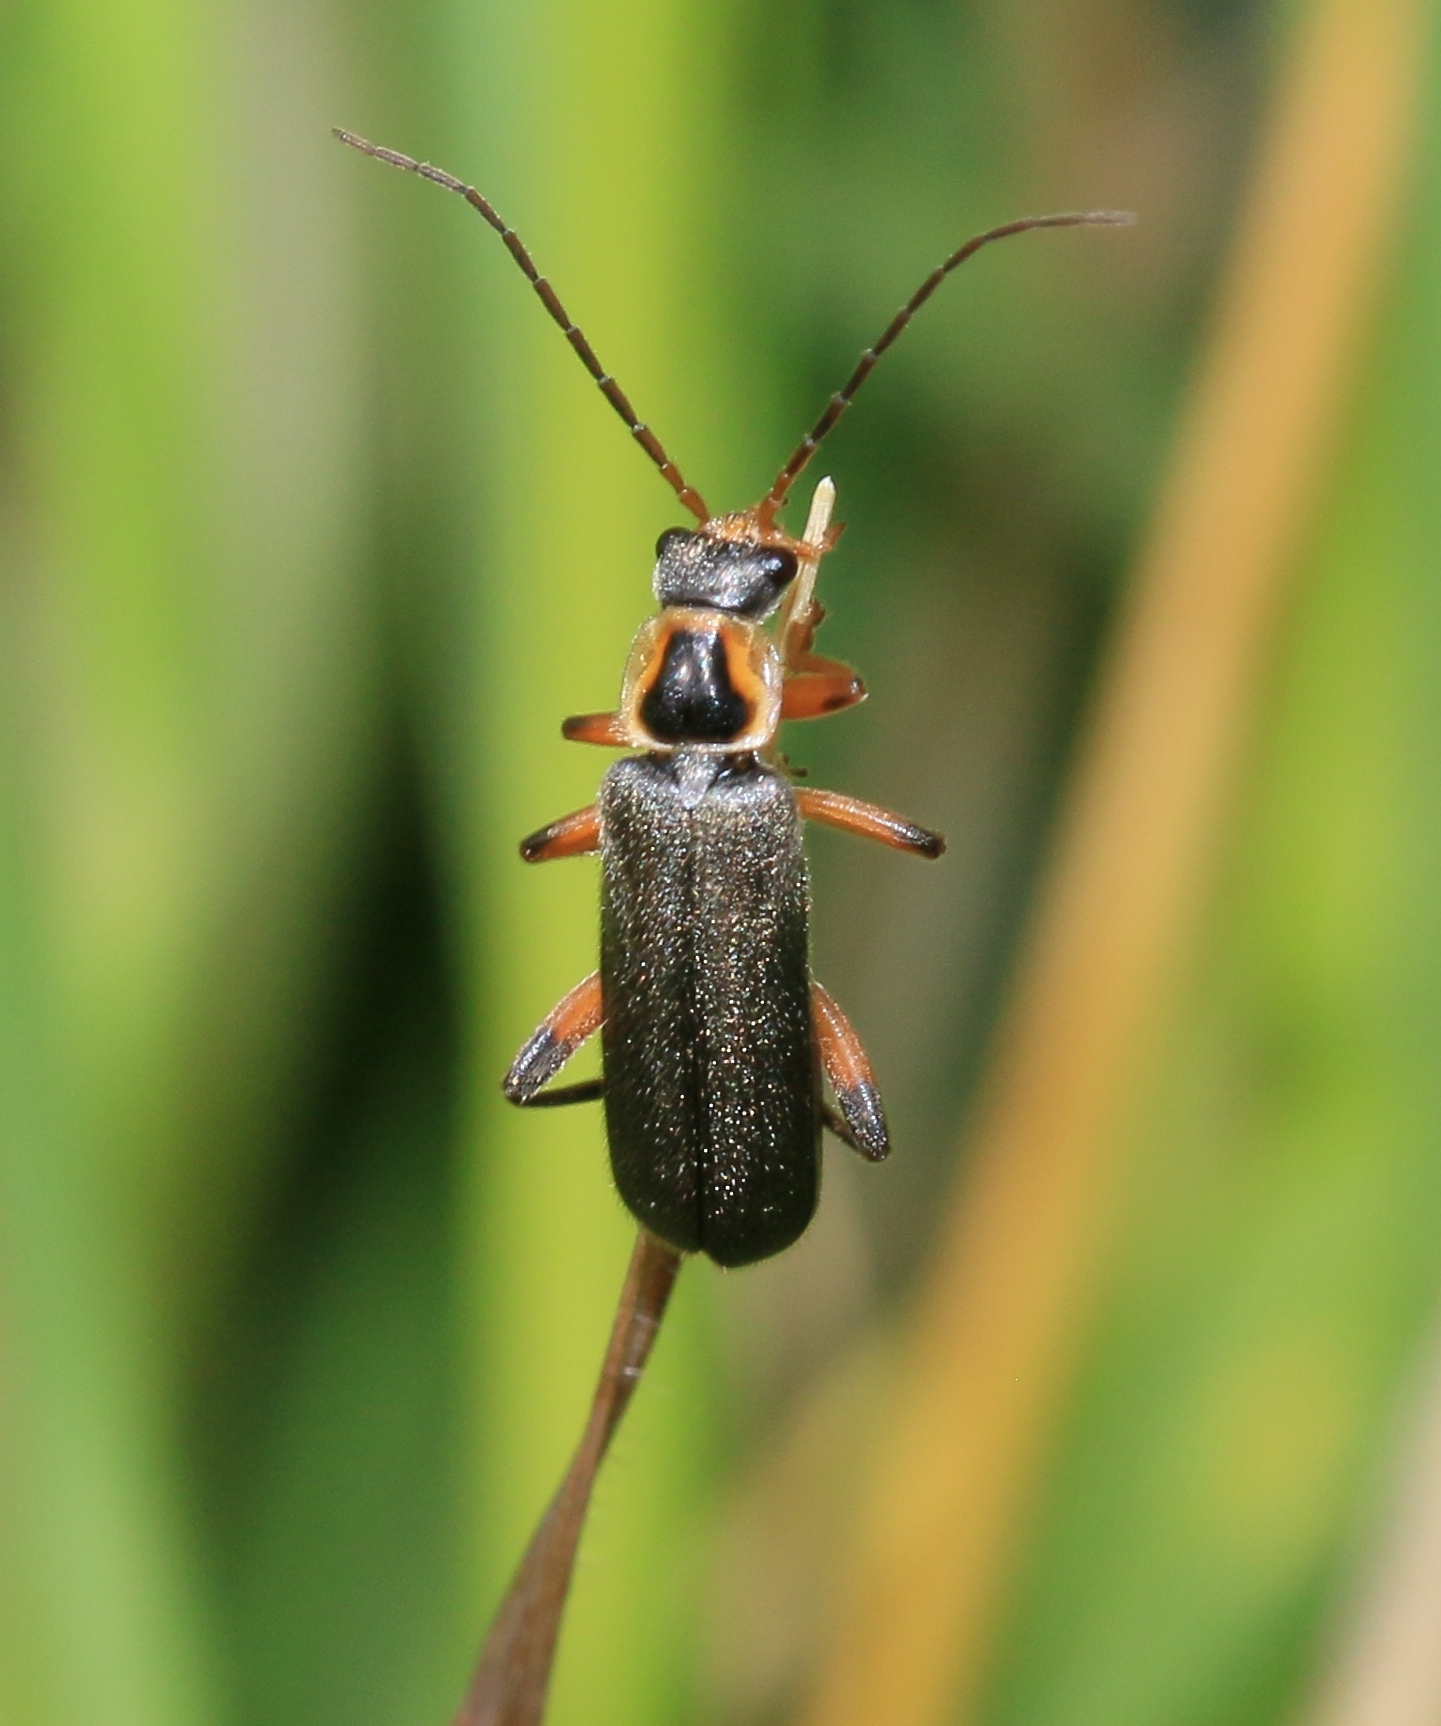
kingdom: Animalia
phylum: Arthropoda
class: Insecta
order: Coleoptera
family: Cantharidae
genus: Cantharis
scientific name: Cantharis nigricans
